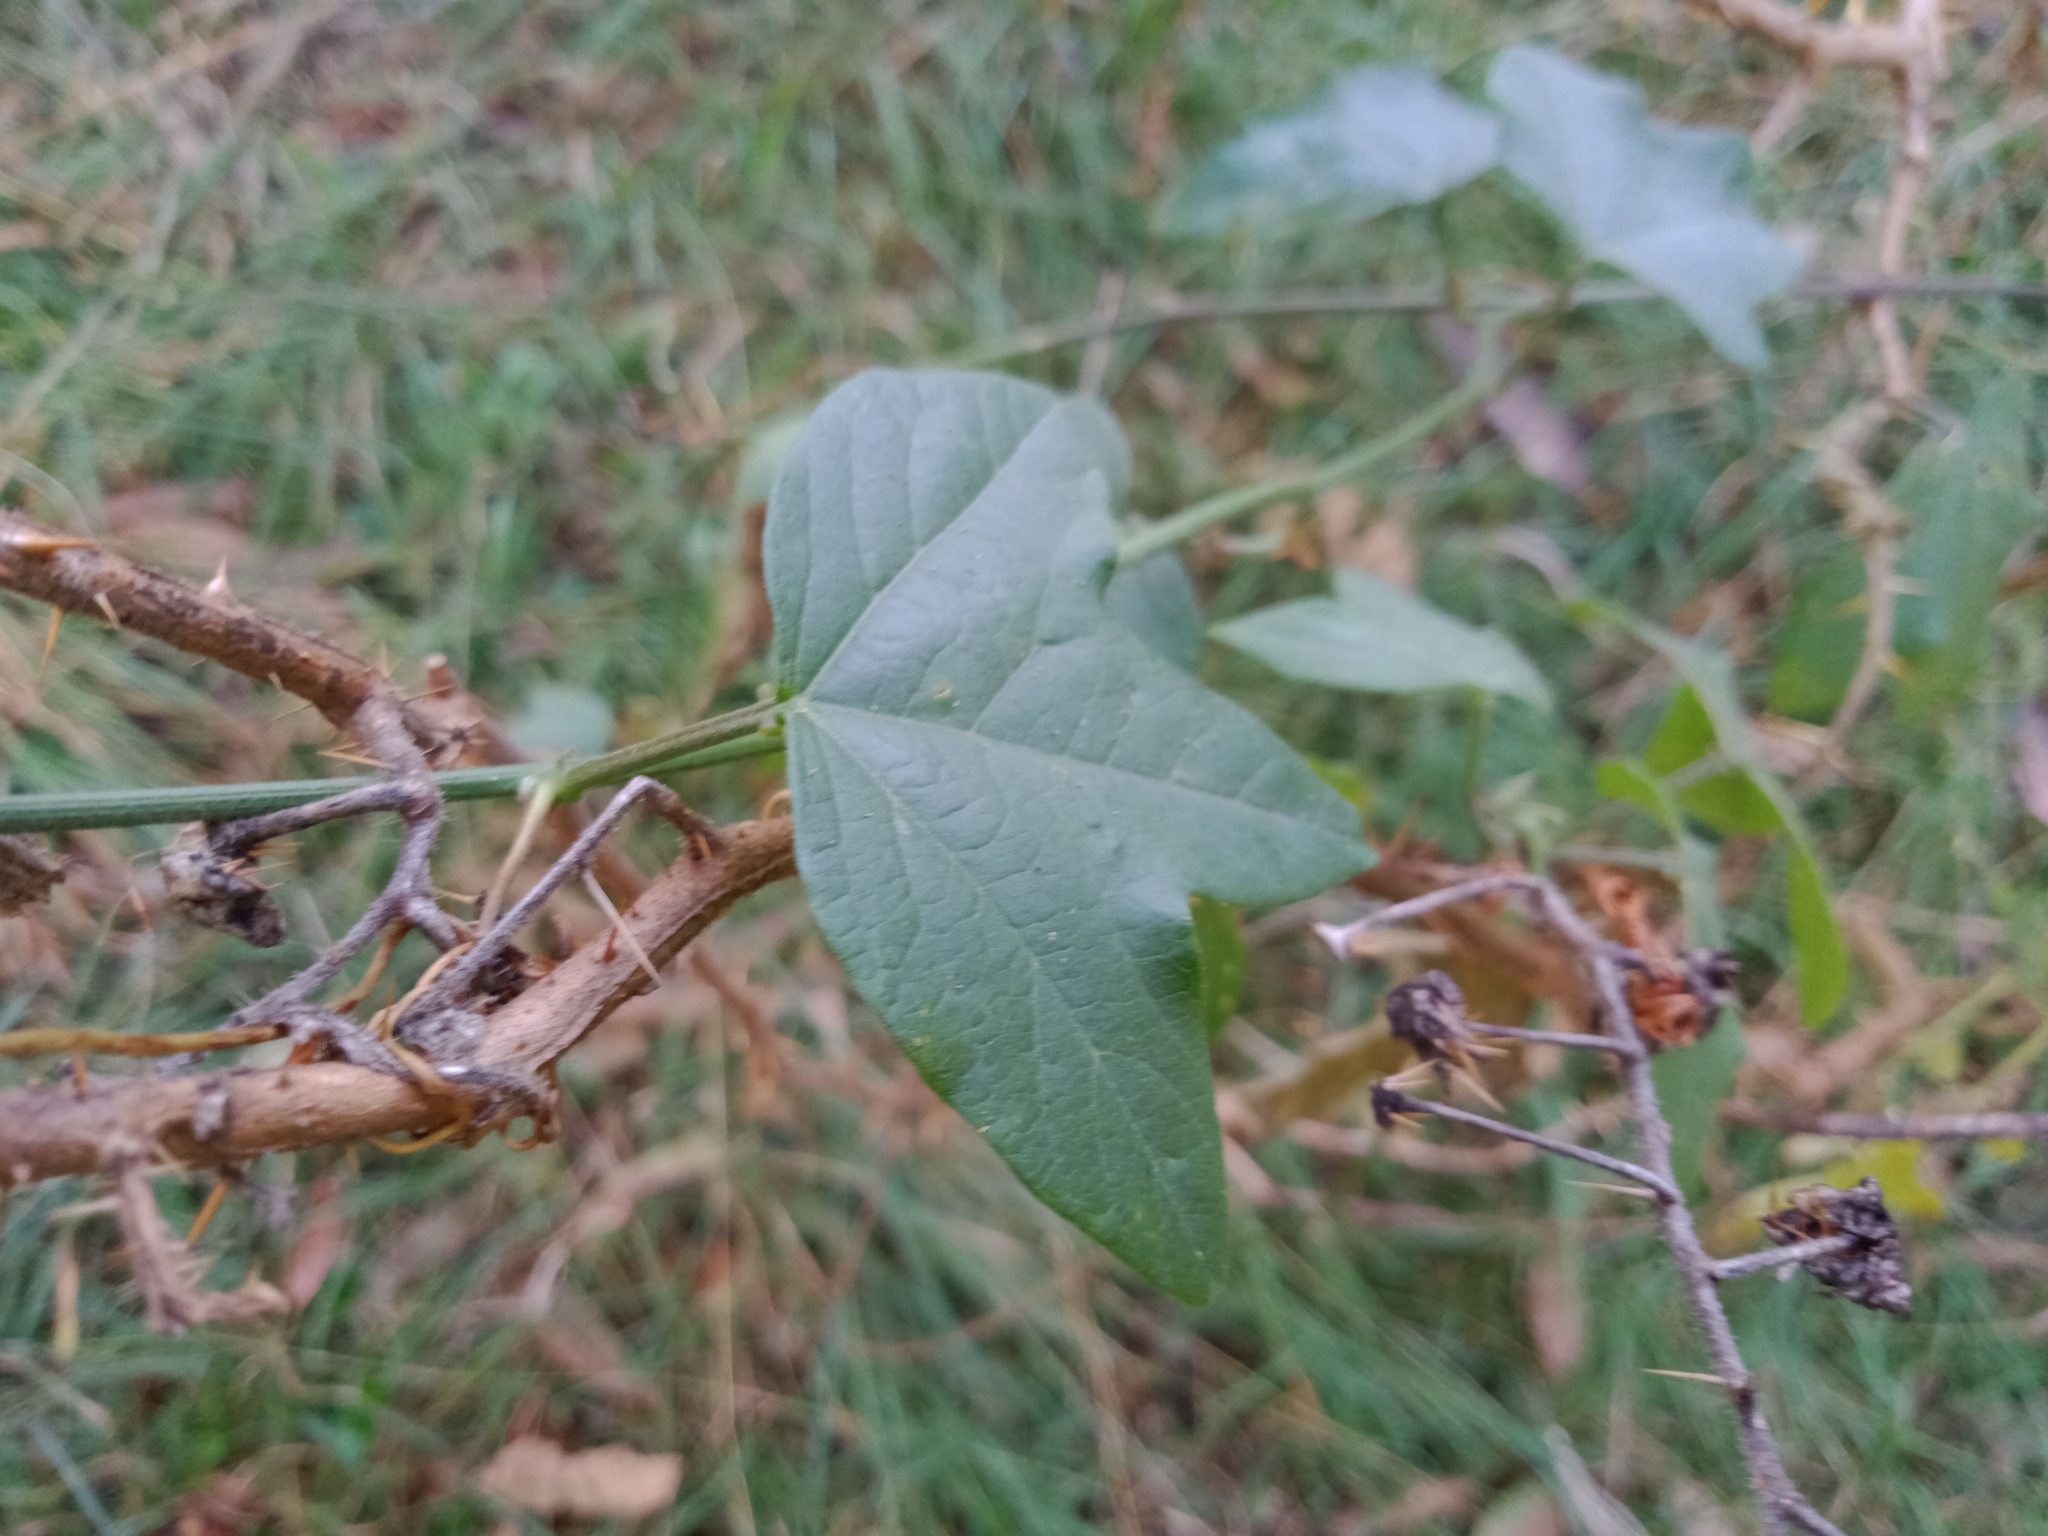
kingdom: Plantae
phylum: Tracheophyta
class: Magnoliopsida
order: Malpighiales
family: Passifloraceae
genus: Passiflora
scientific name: Passiflora herbertiana
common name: Yellow passionflower
